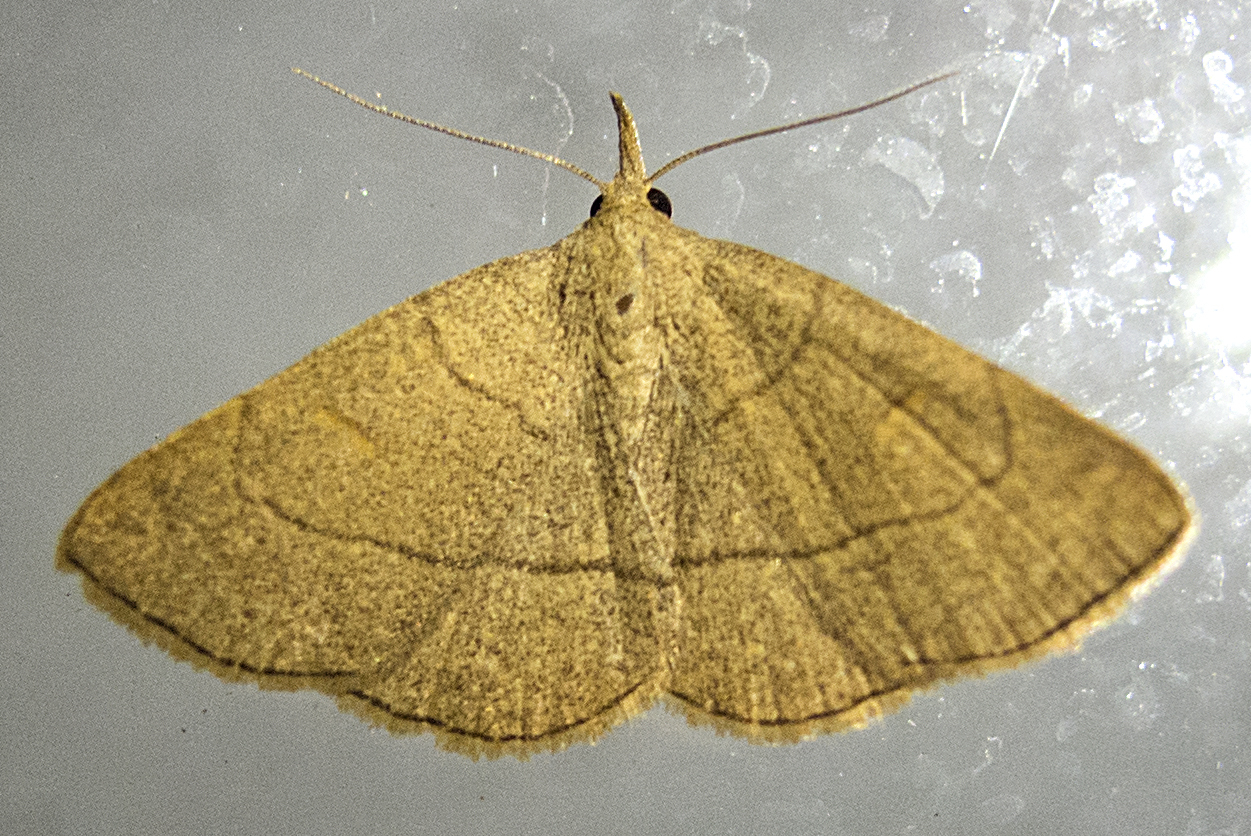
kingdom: Animalia
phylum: Arthropoda
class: Insecta
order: Lepidoptera
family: Erebidae
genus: Paracolax
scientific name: Paracolax tristalis
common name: Clay fan-foot
